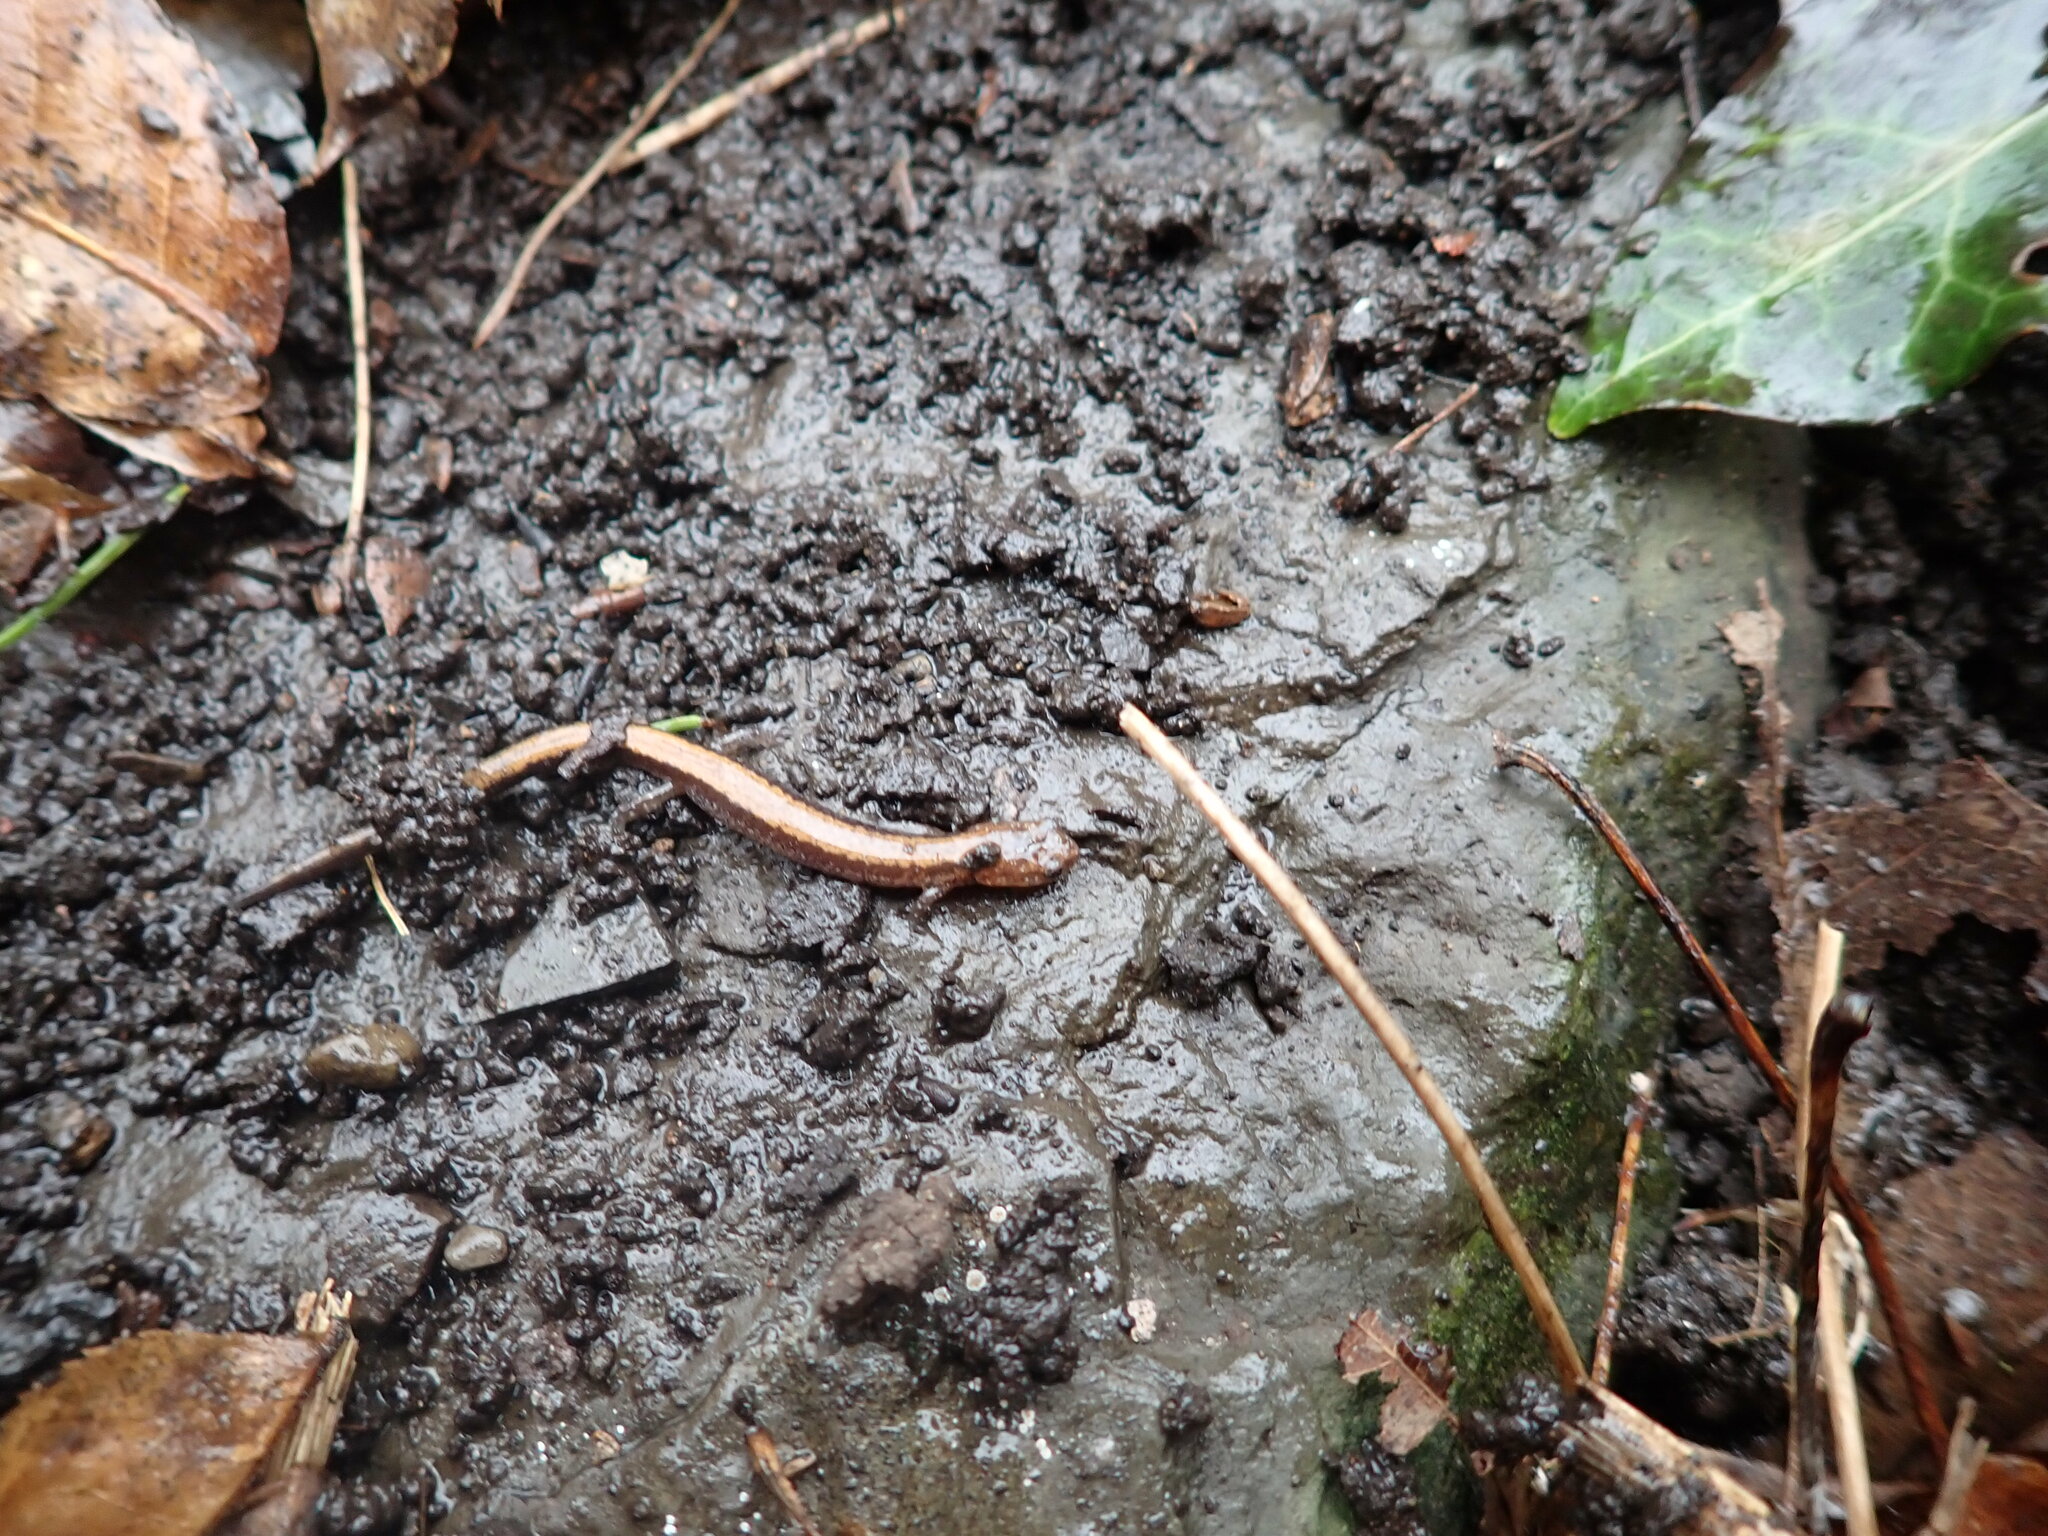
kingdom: Animalia
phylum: Chordata
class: Amphibia
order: Caudata
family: Plethodontidae
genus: Plethodon
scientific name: Plethodon cinereus
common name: Redback salamander
